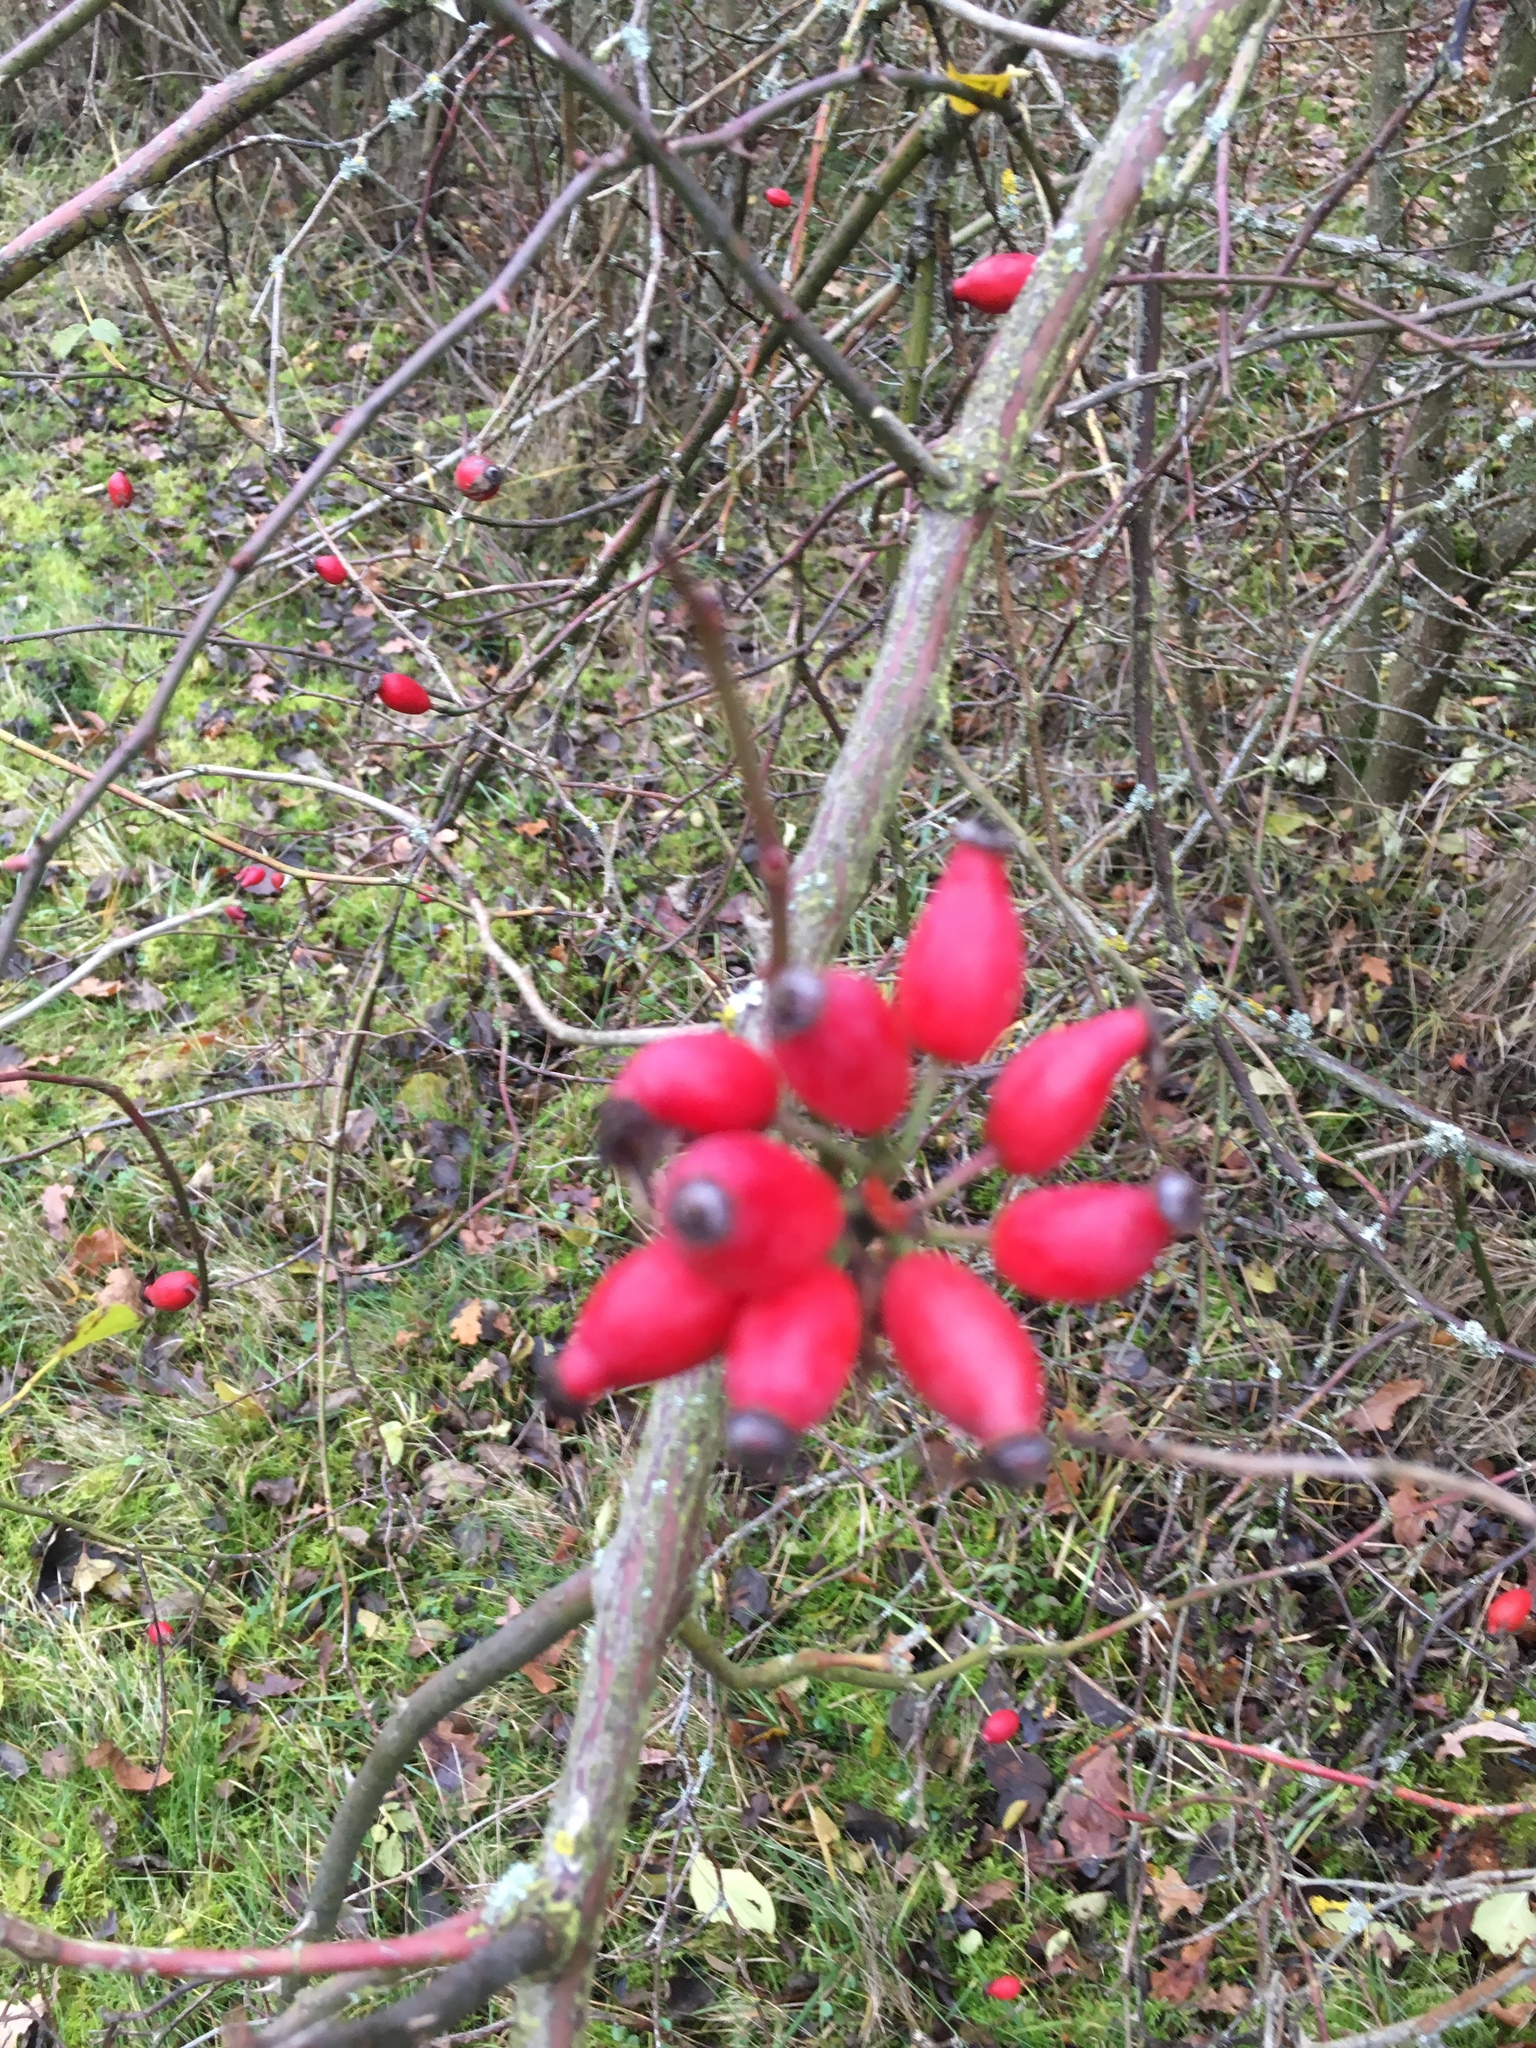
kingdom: Plantae
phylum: Tracheophyta
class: Magnoliopsida
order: Rosales
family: Rosaceae
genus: Rosa
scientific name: Rosa multiflora
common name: Multiflora rose
